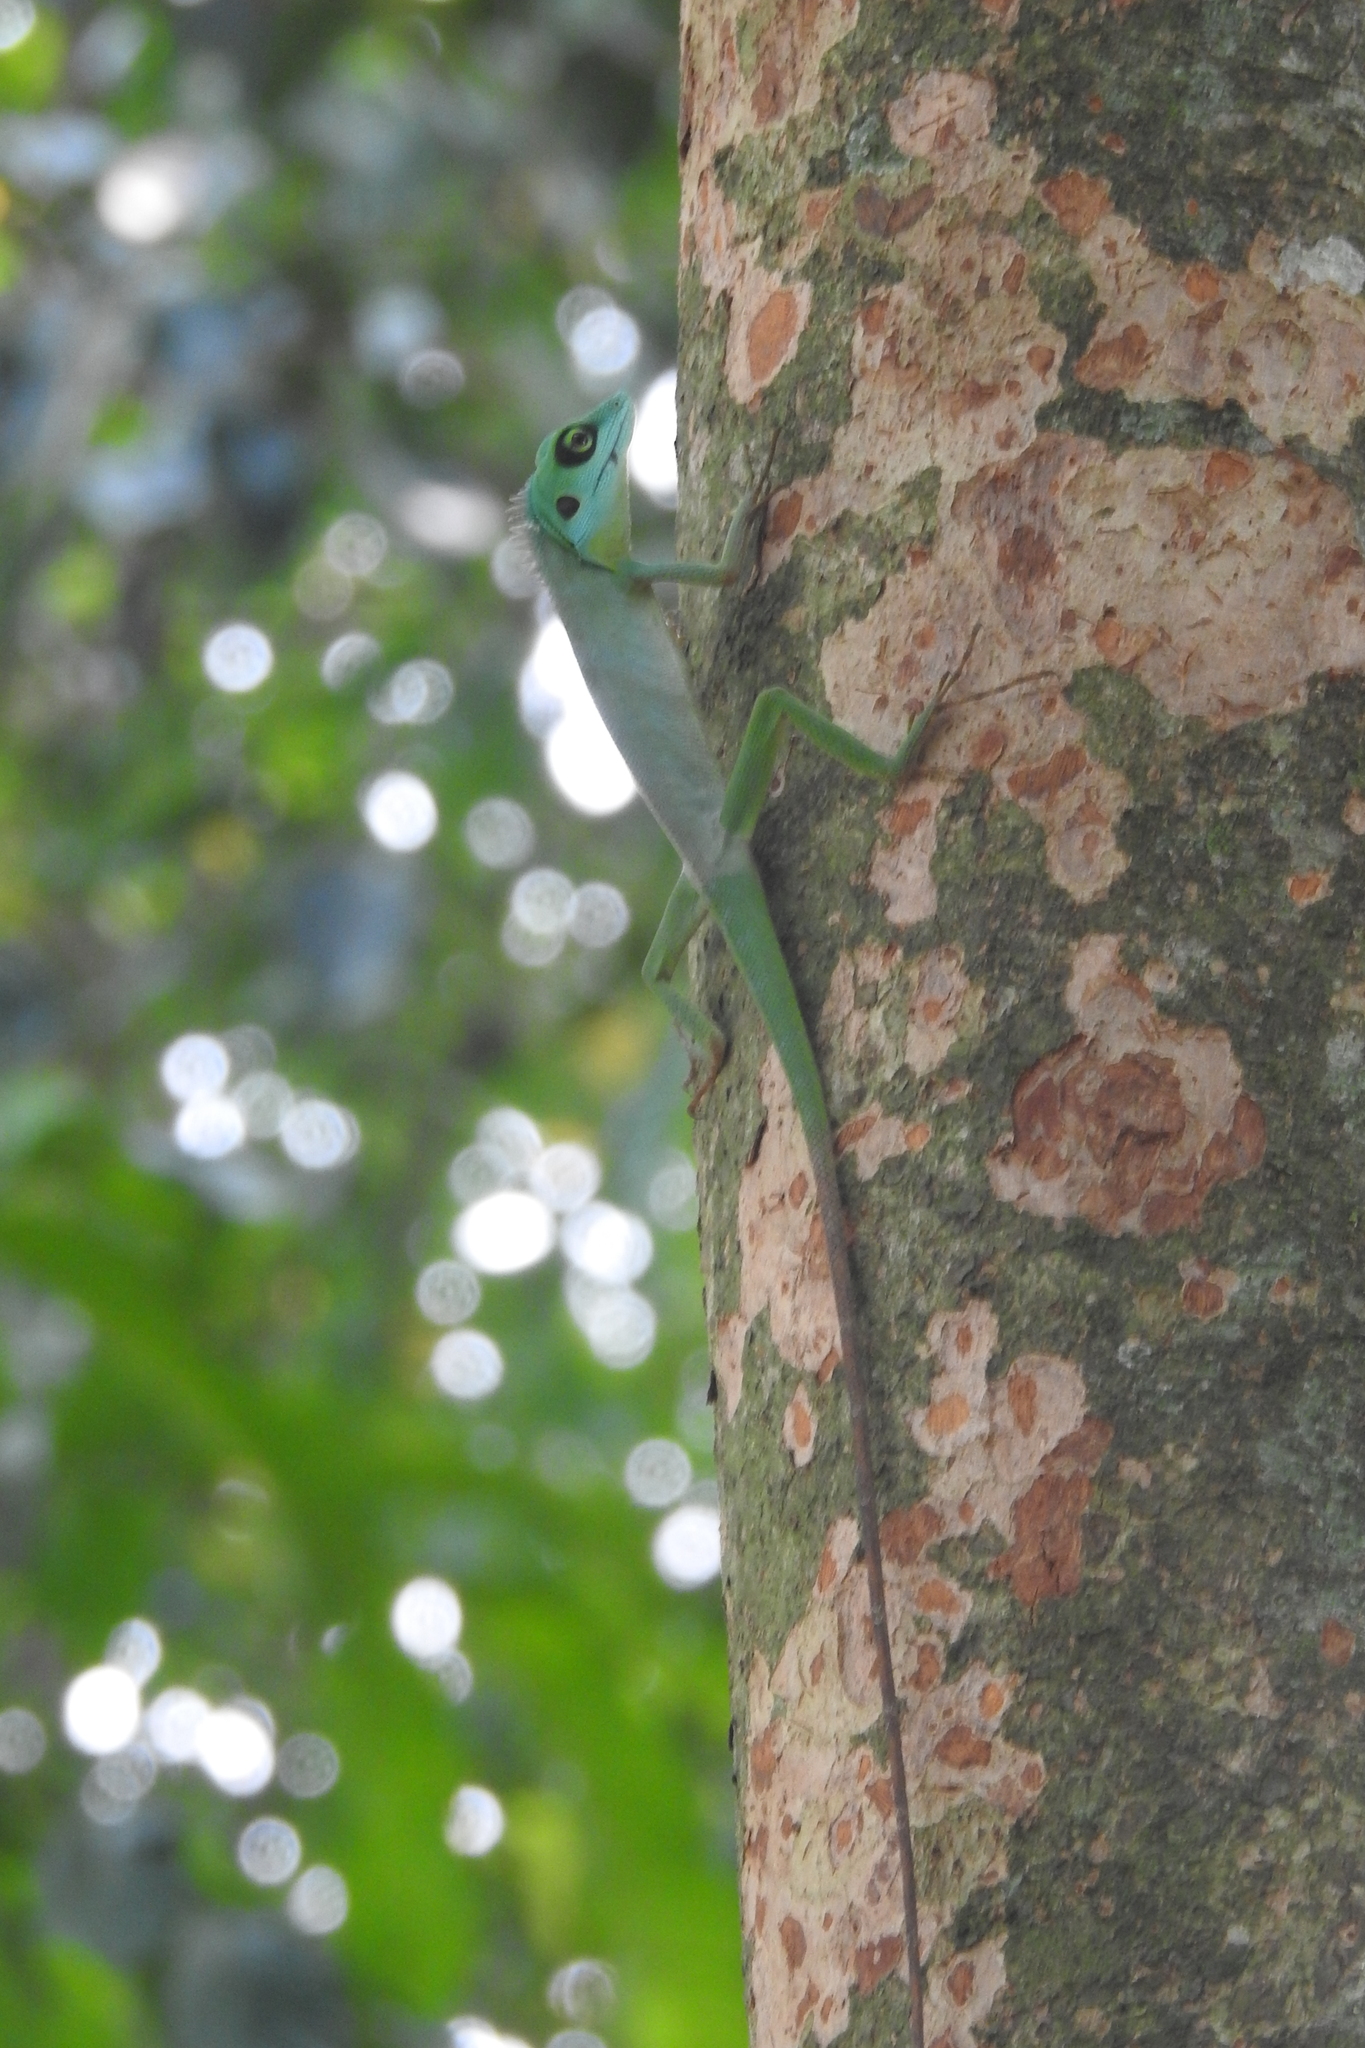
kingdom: Animalia
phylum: Chordata
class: Squamata
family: Agamidae
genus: Bronchocela
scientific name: Bronchocela cristatella
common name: Green crested lizard
